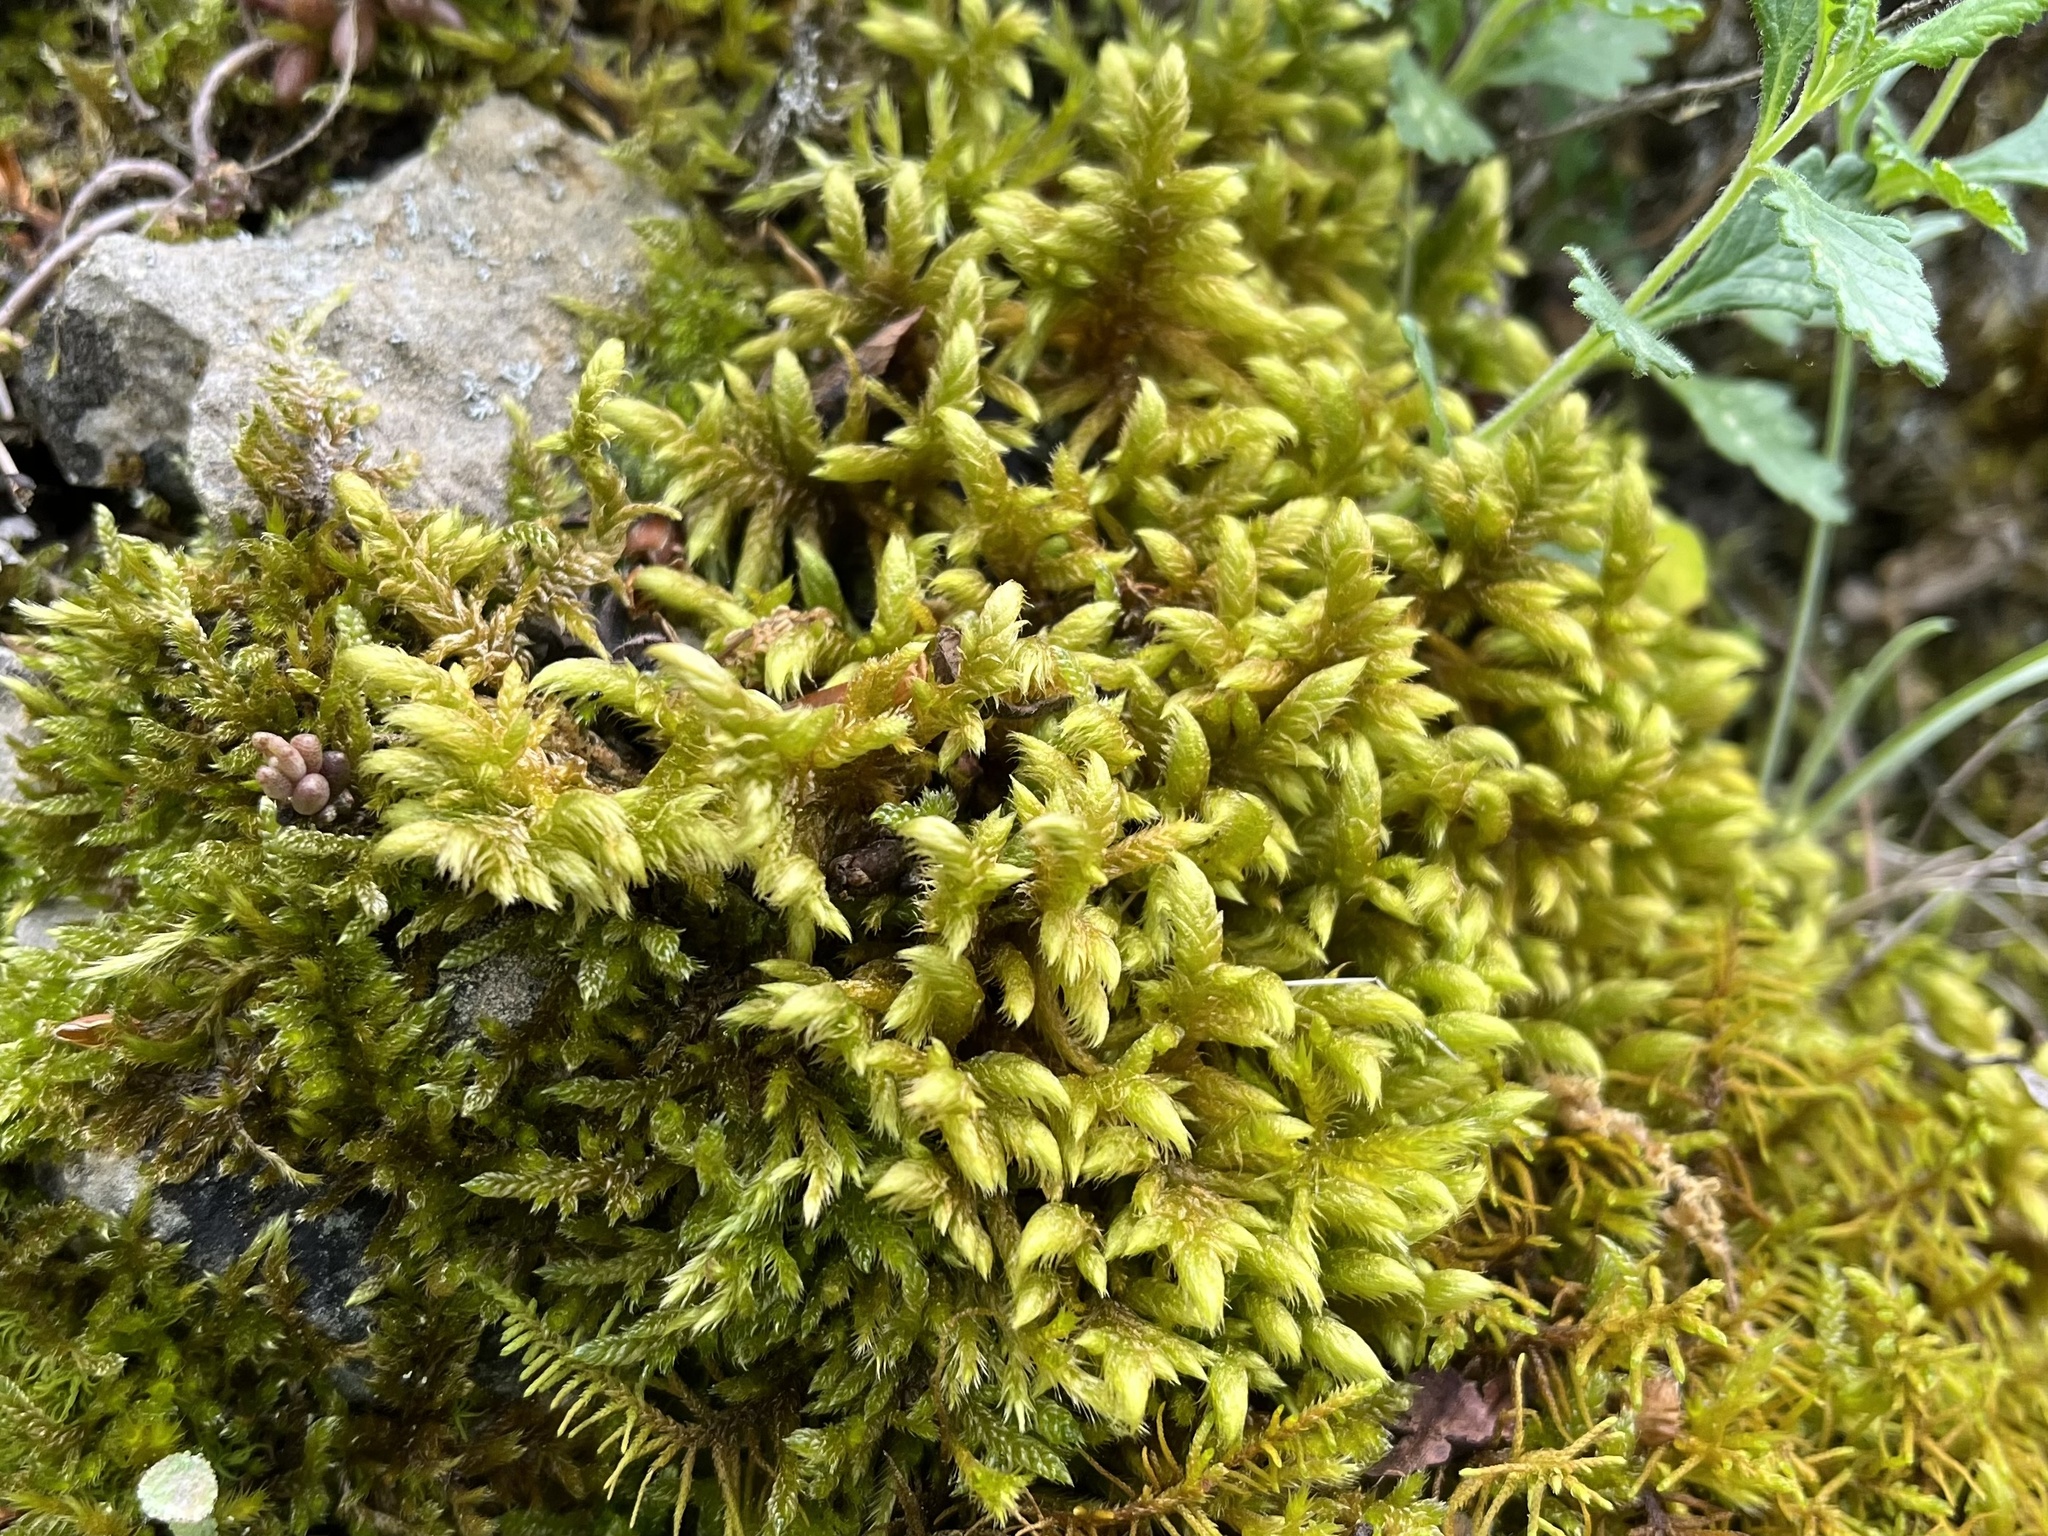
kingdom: Plantae
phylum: Bryophyta
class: Bryopsida
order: Hypnales
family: Rhytidiaceae
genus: Rhytidium
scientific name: Rhytidium rugosum
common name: Wrinkle-leaved moss
